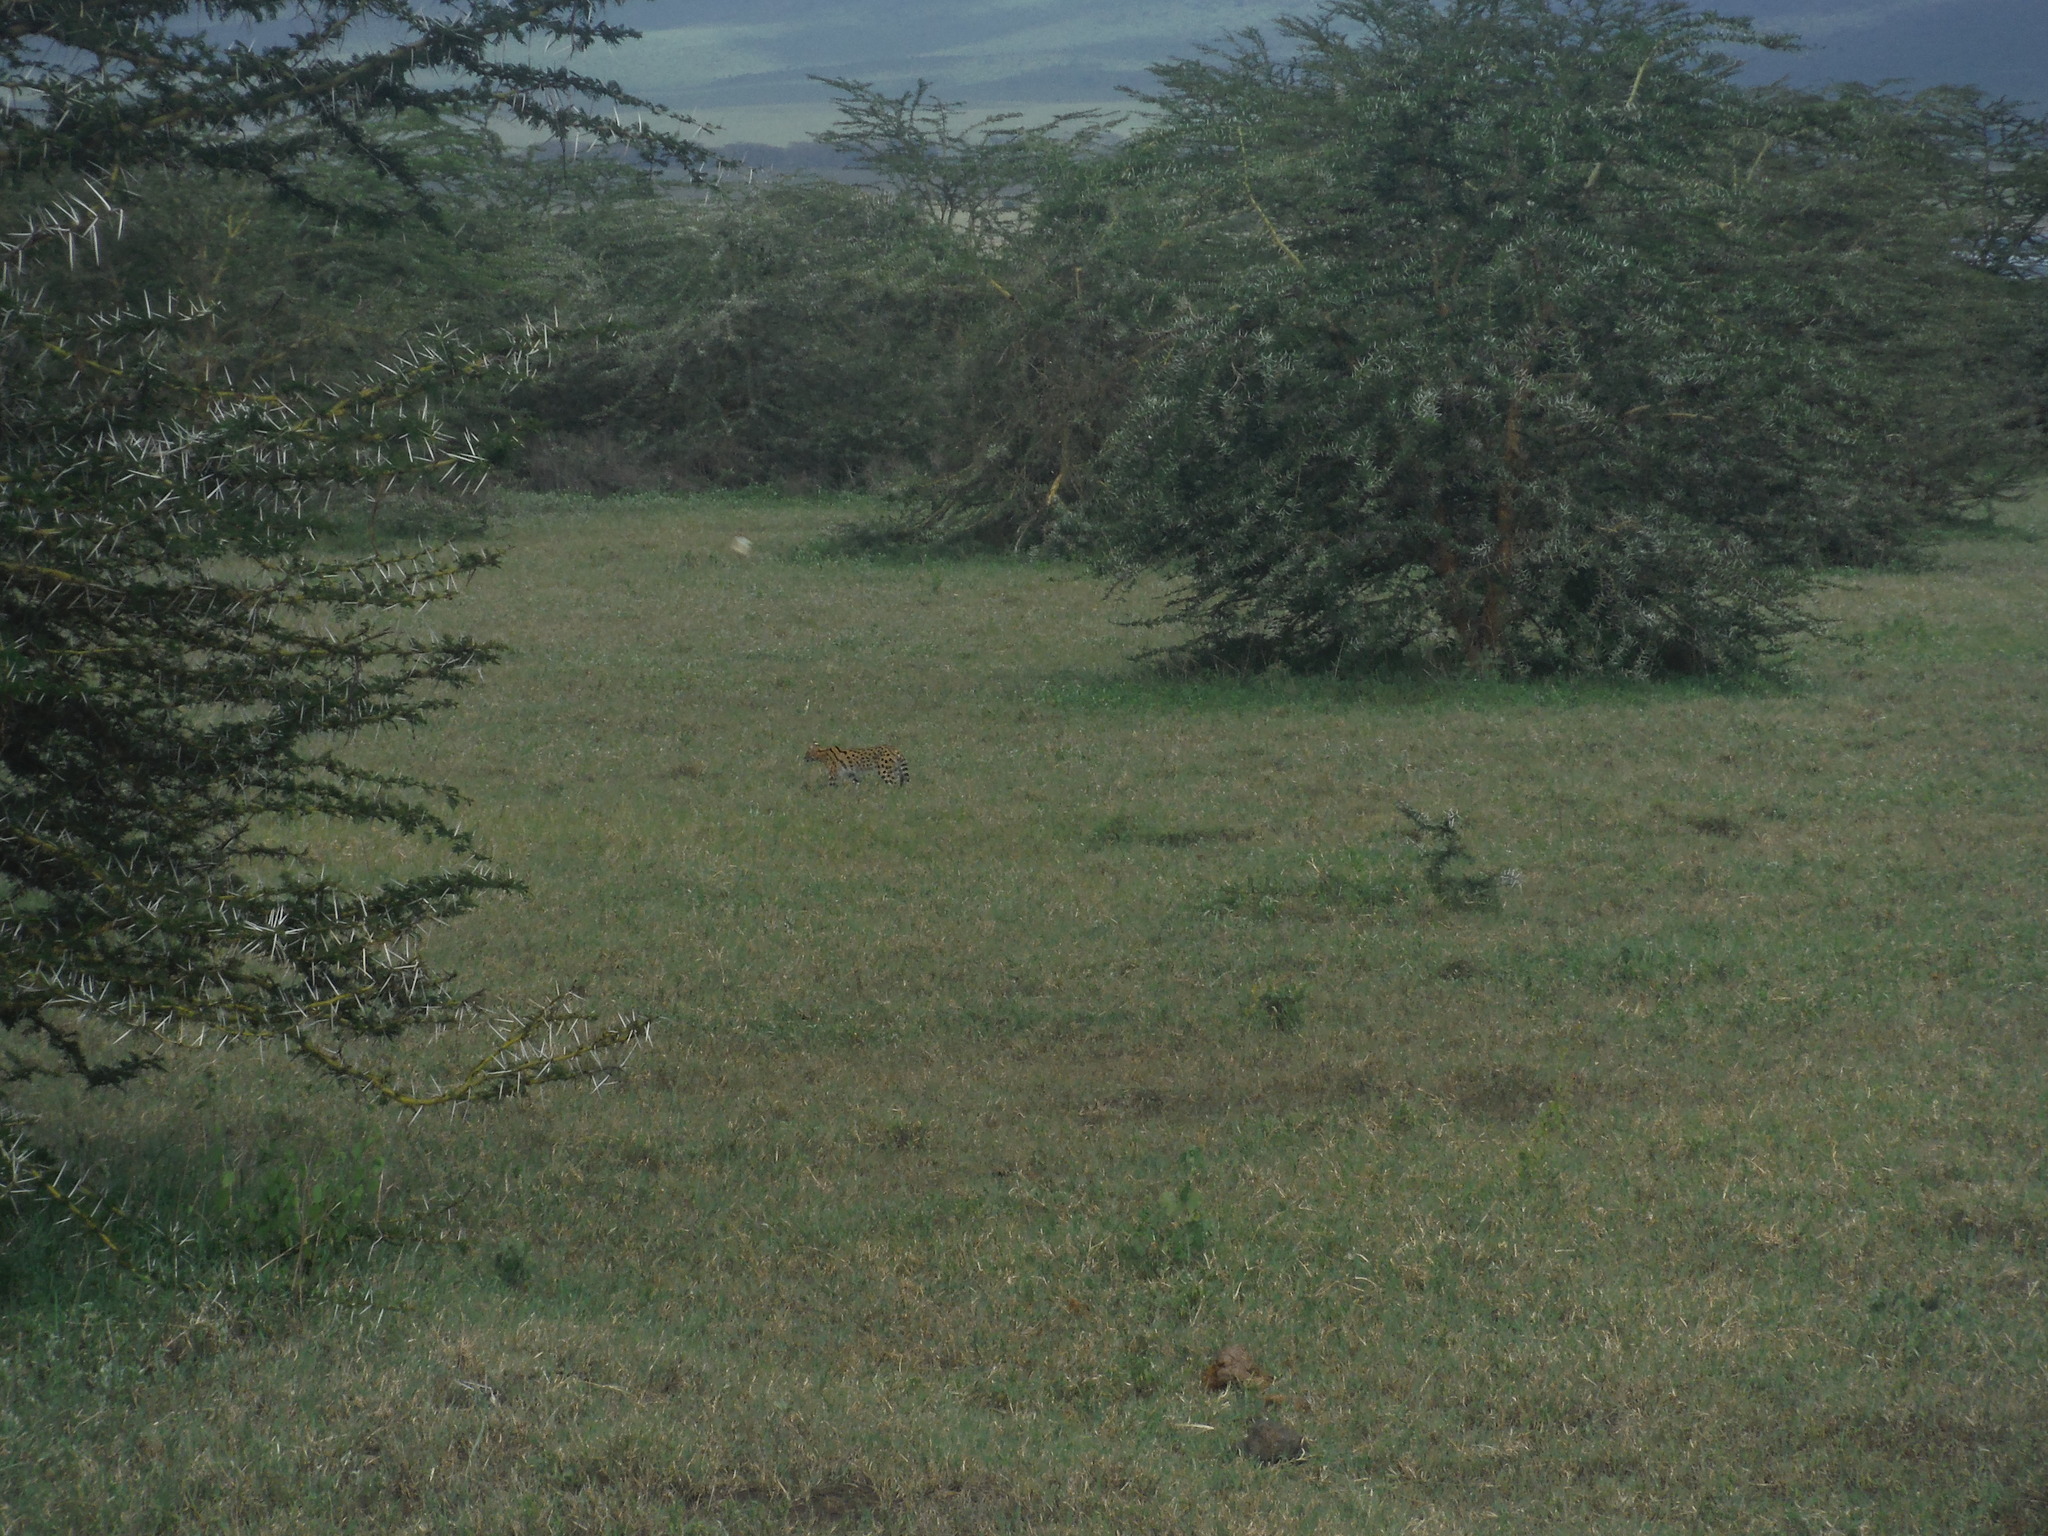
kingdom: Animalia
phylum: Chordata
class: Mammalia
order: Carnivora
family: Felidae
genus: Leptailurus
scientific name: Leptailurus serval
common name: Serval
